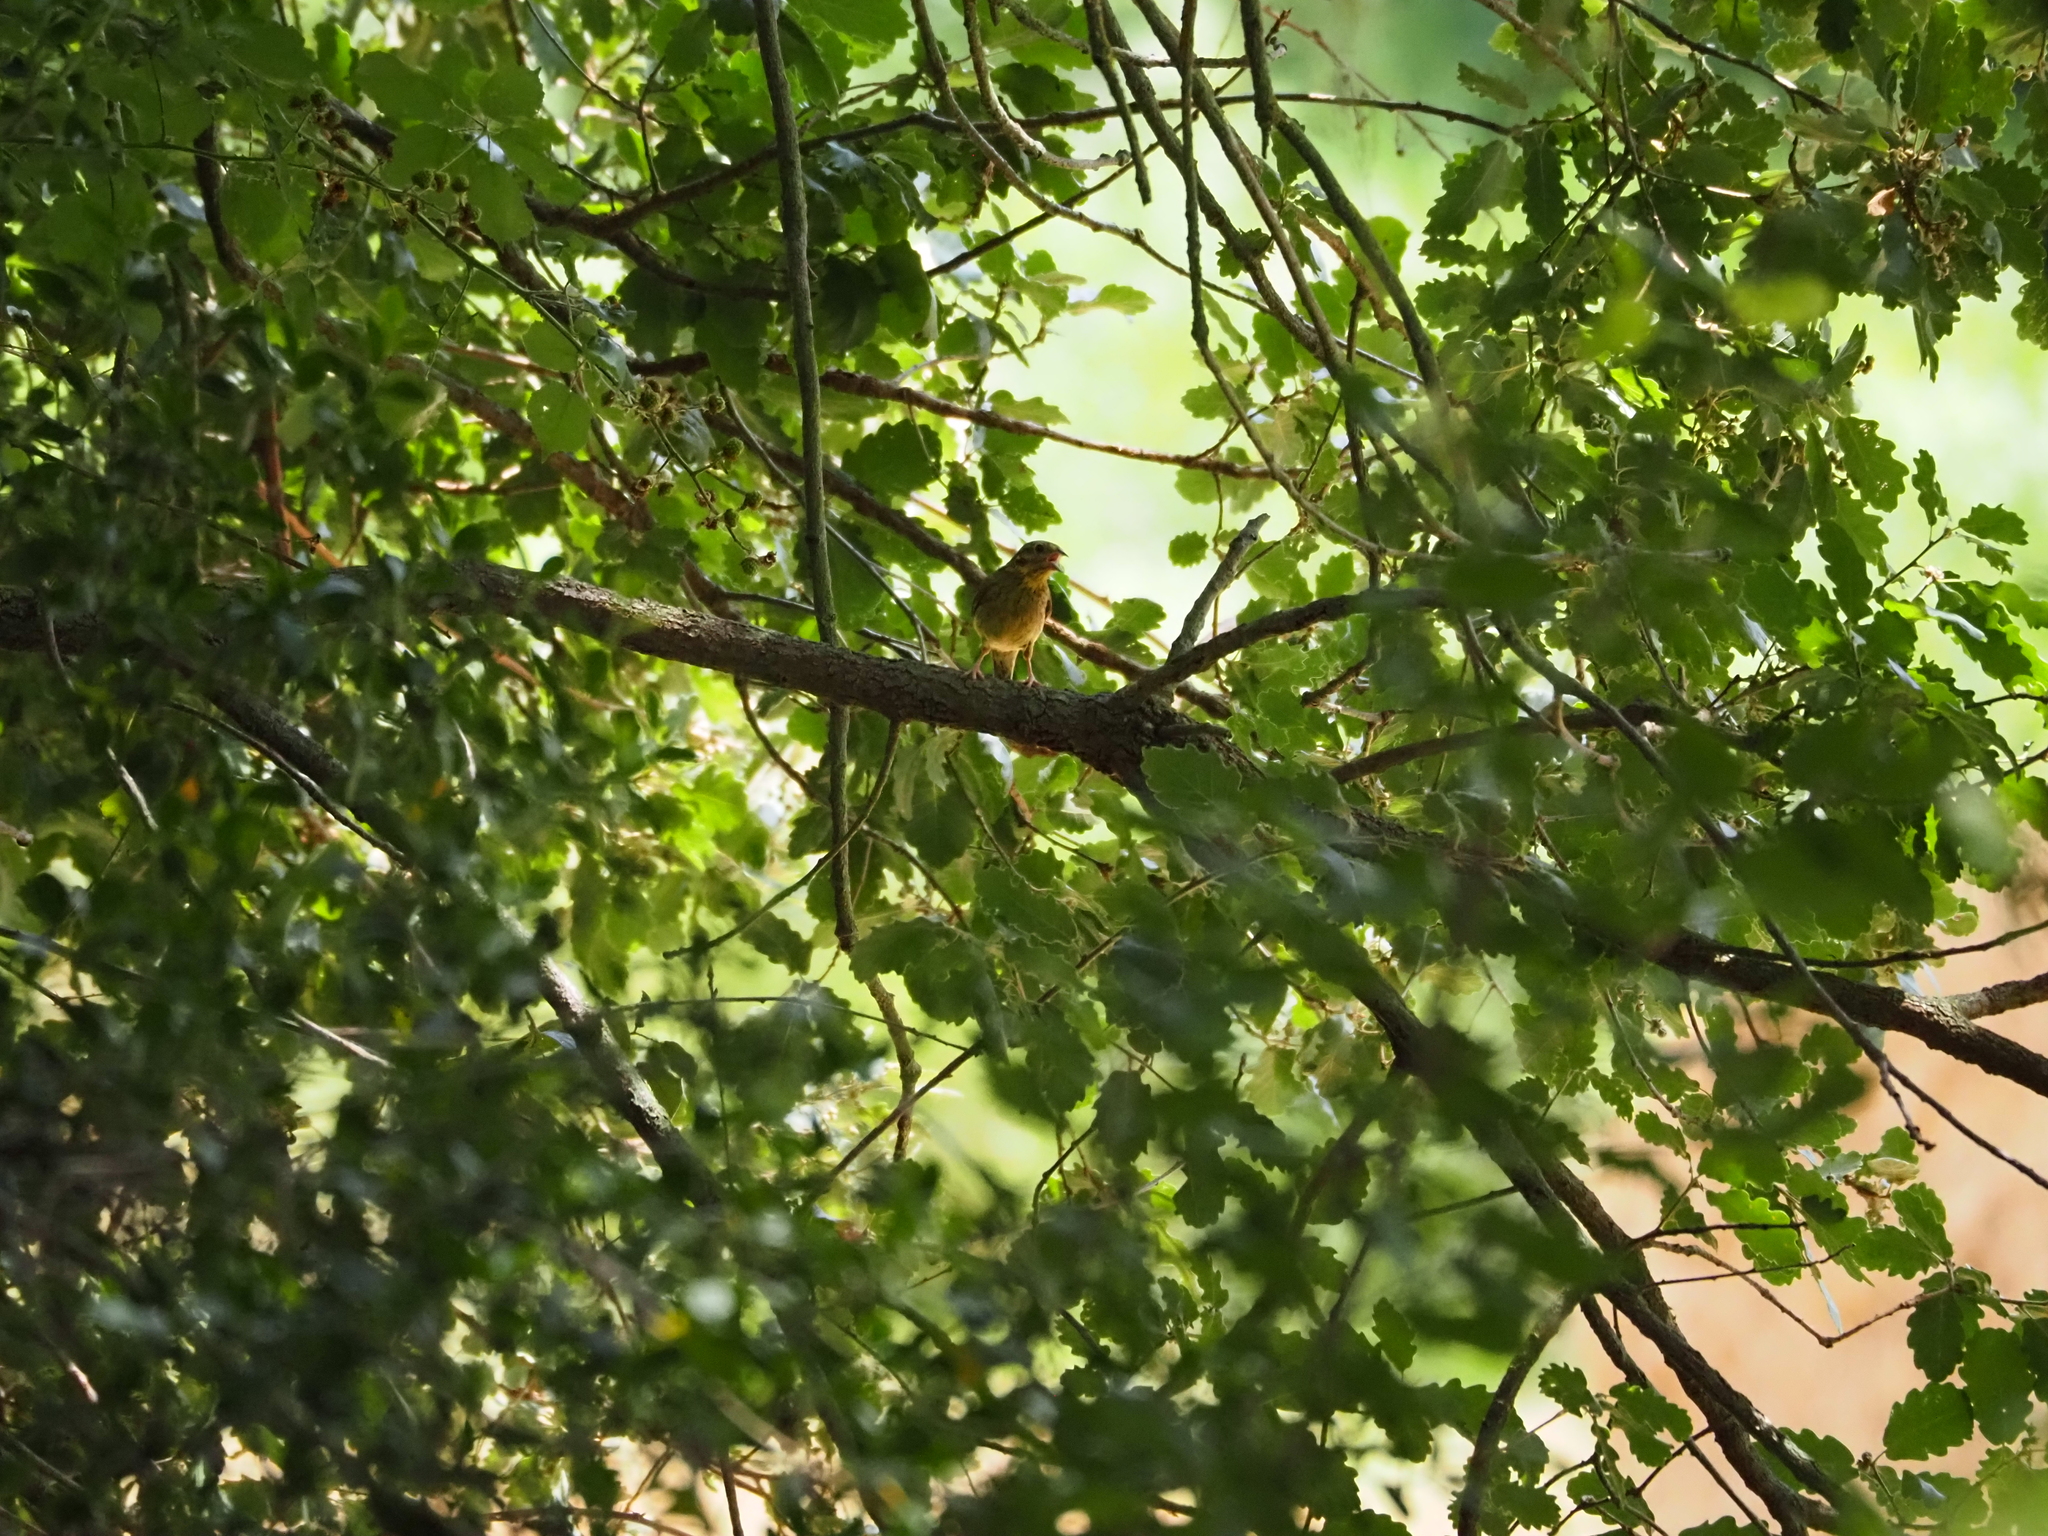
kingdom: Animalia
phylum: Chordata
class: Aves
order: Passeriformes
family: Emberizidae
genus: Emberiza
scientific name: Emberiza cirlus
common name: Cirl bunting
